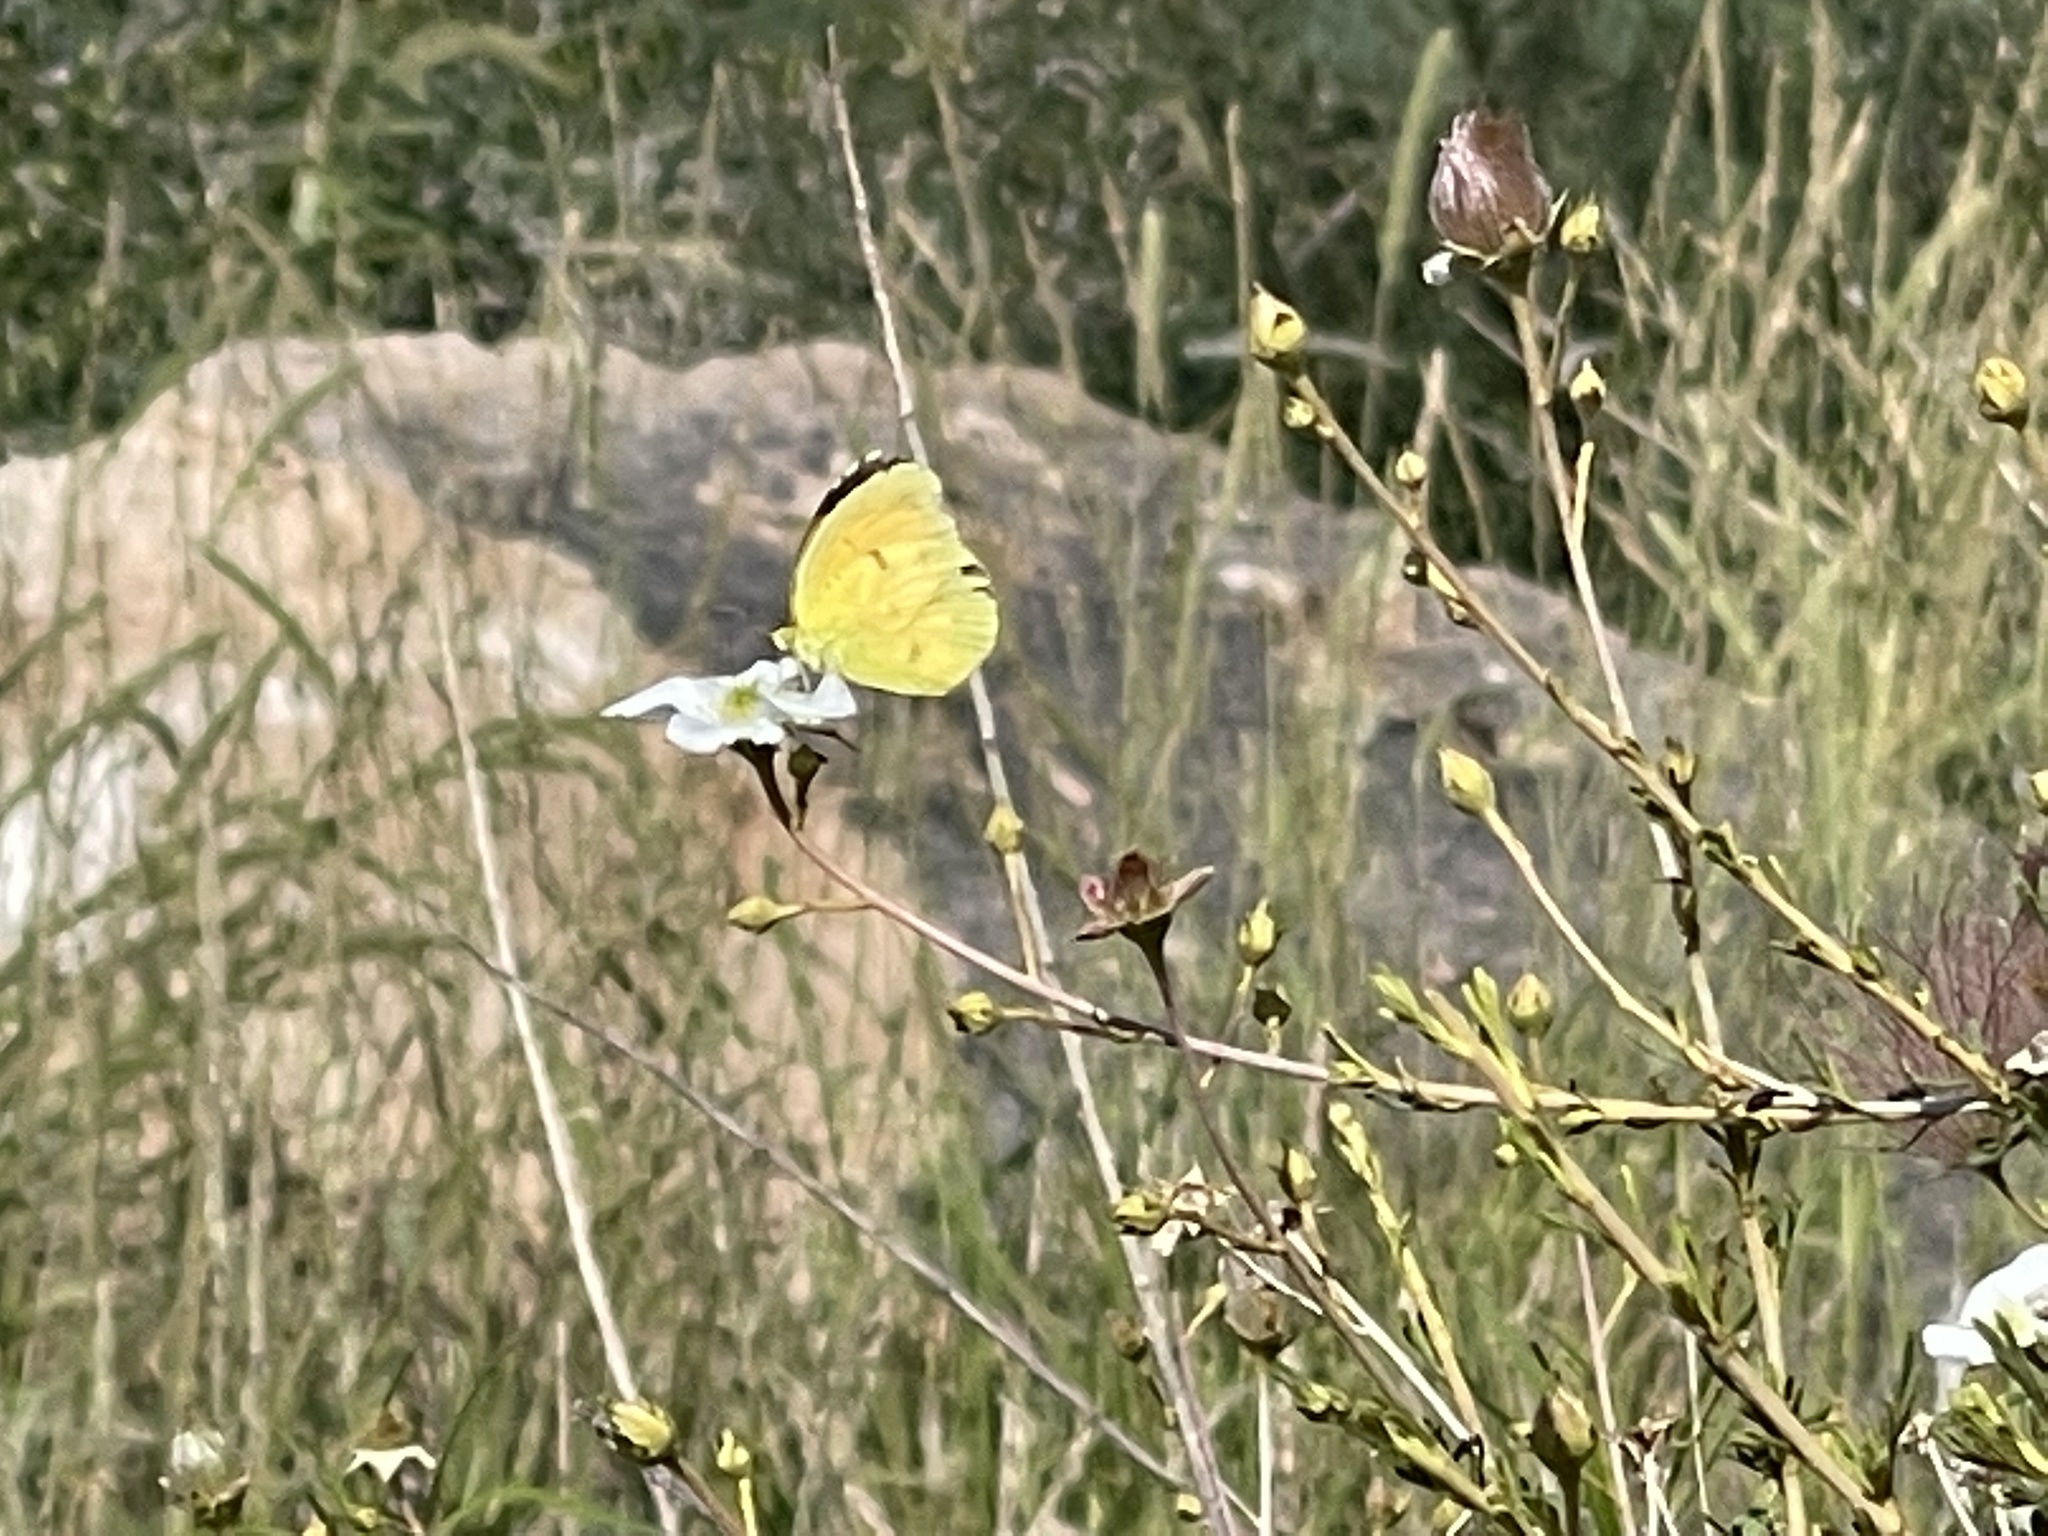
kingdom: Animalia
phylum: Arthropoda
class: Insecta
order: Lepidoptera
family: Pieridae
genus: Abaeis
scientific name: Abaeis nicippe
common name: Sleepy orange
